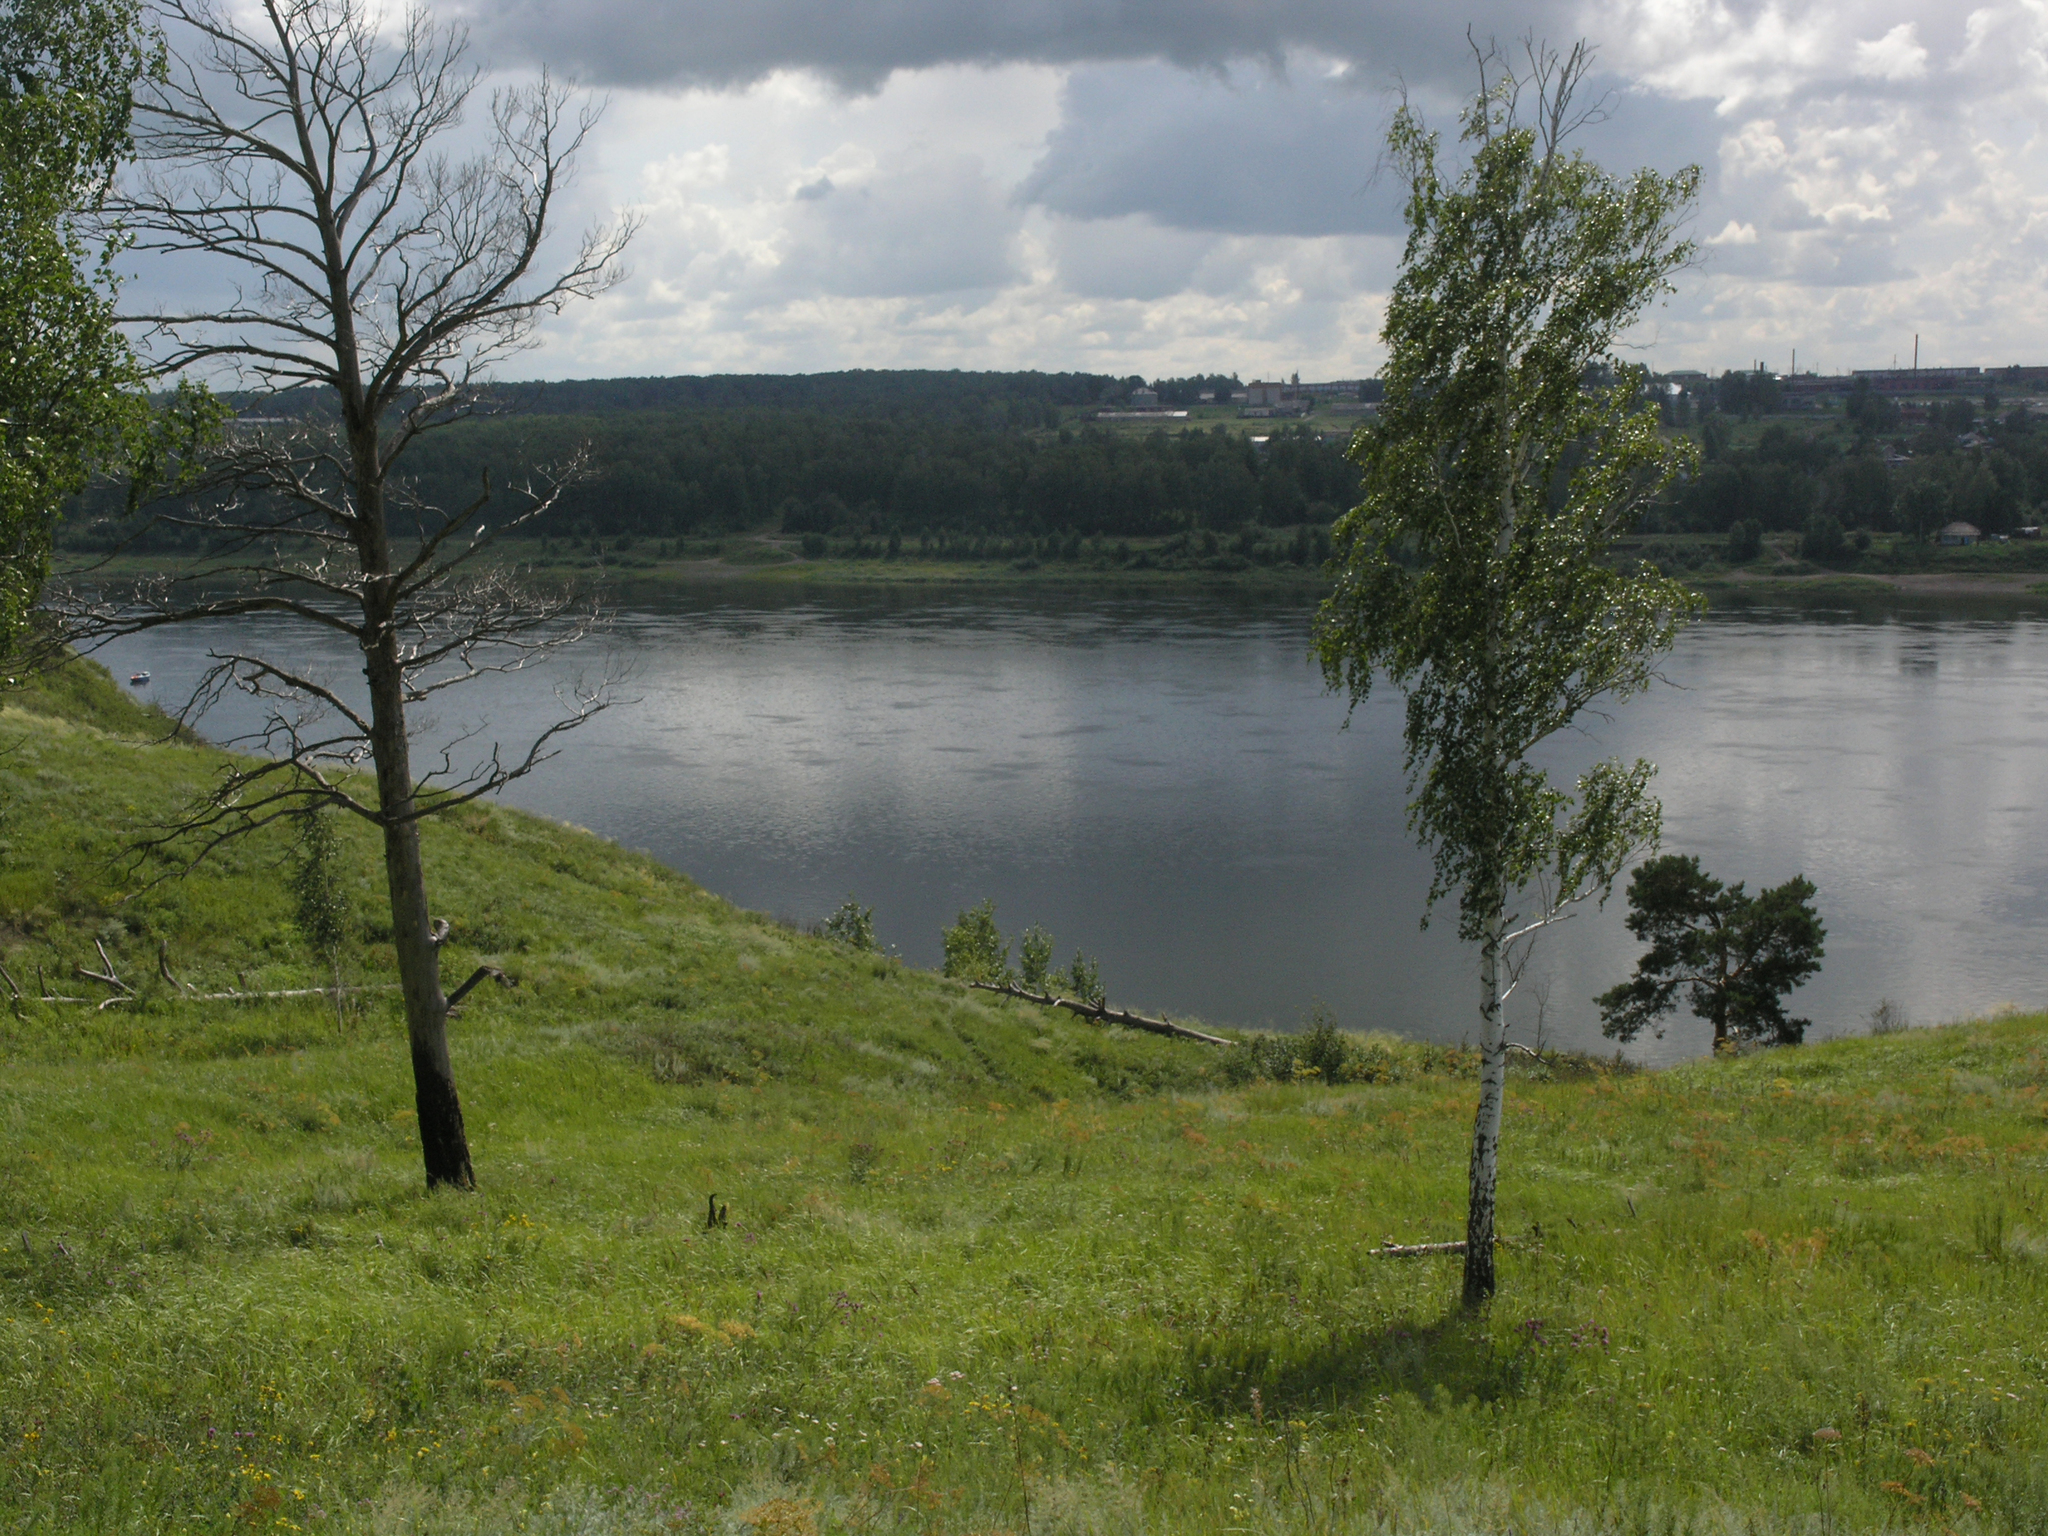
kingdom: Plantae
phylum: Tracheophyta
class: Magnoliopsida
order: Fagales
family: Betulaceae
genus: Betula
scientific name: Betula pendula
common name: Silver birch
